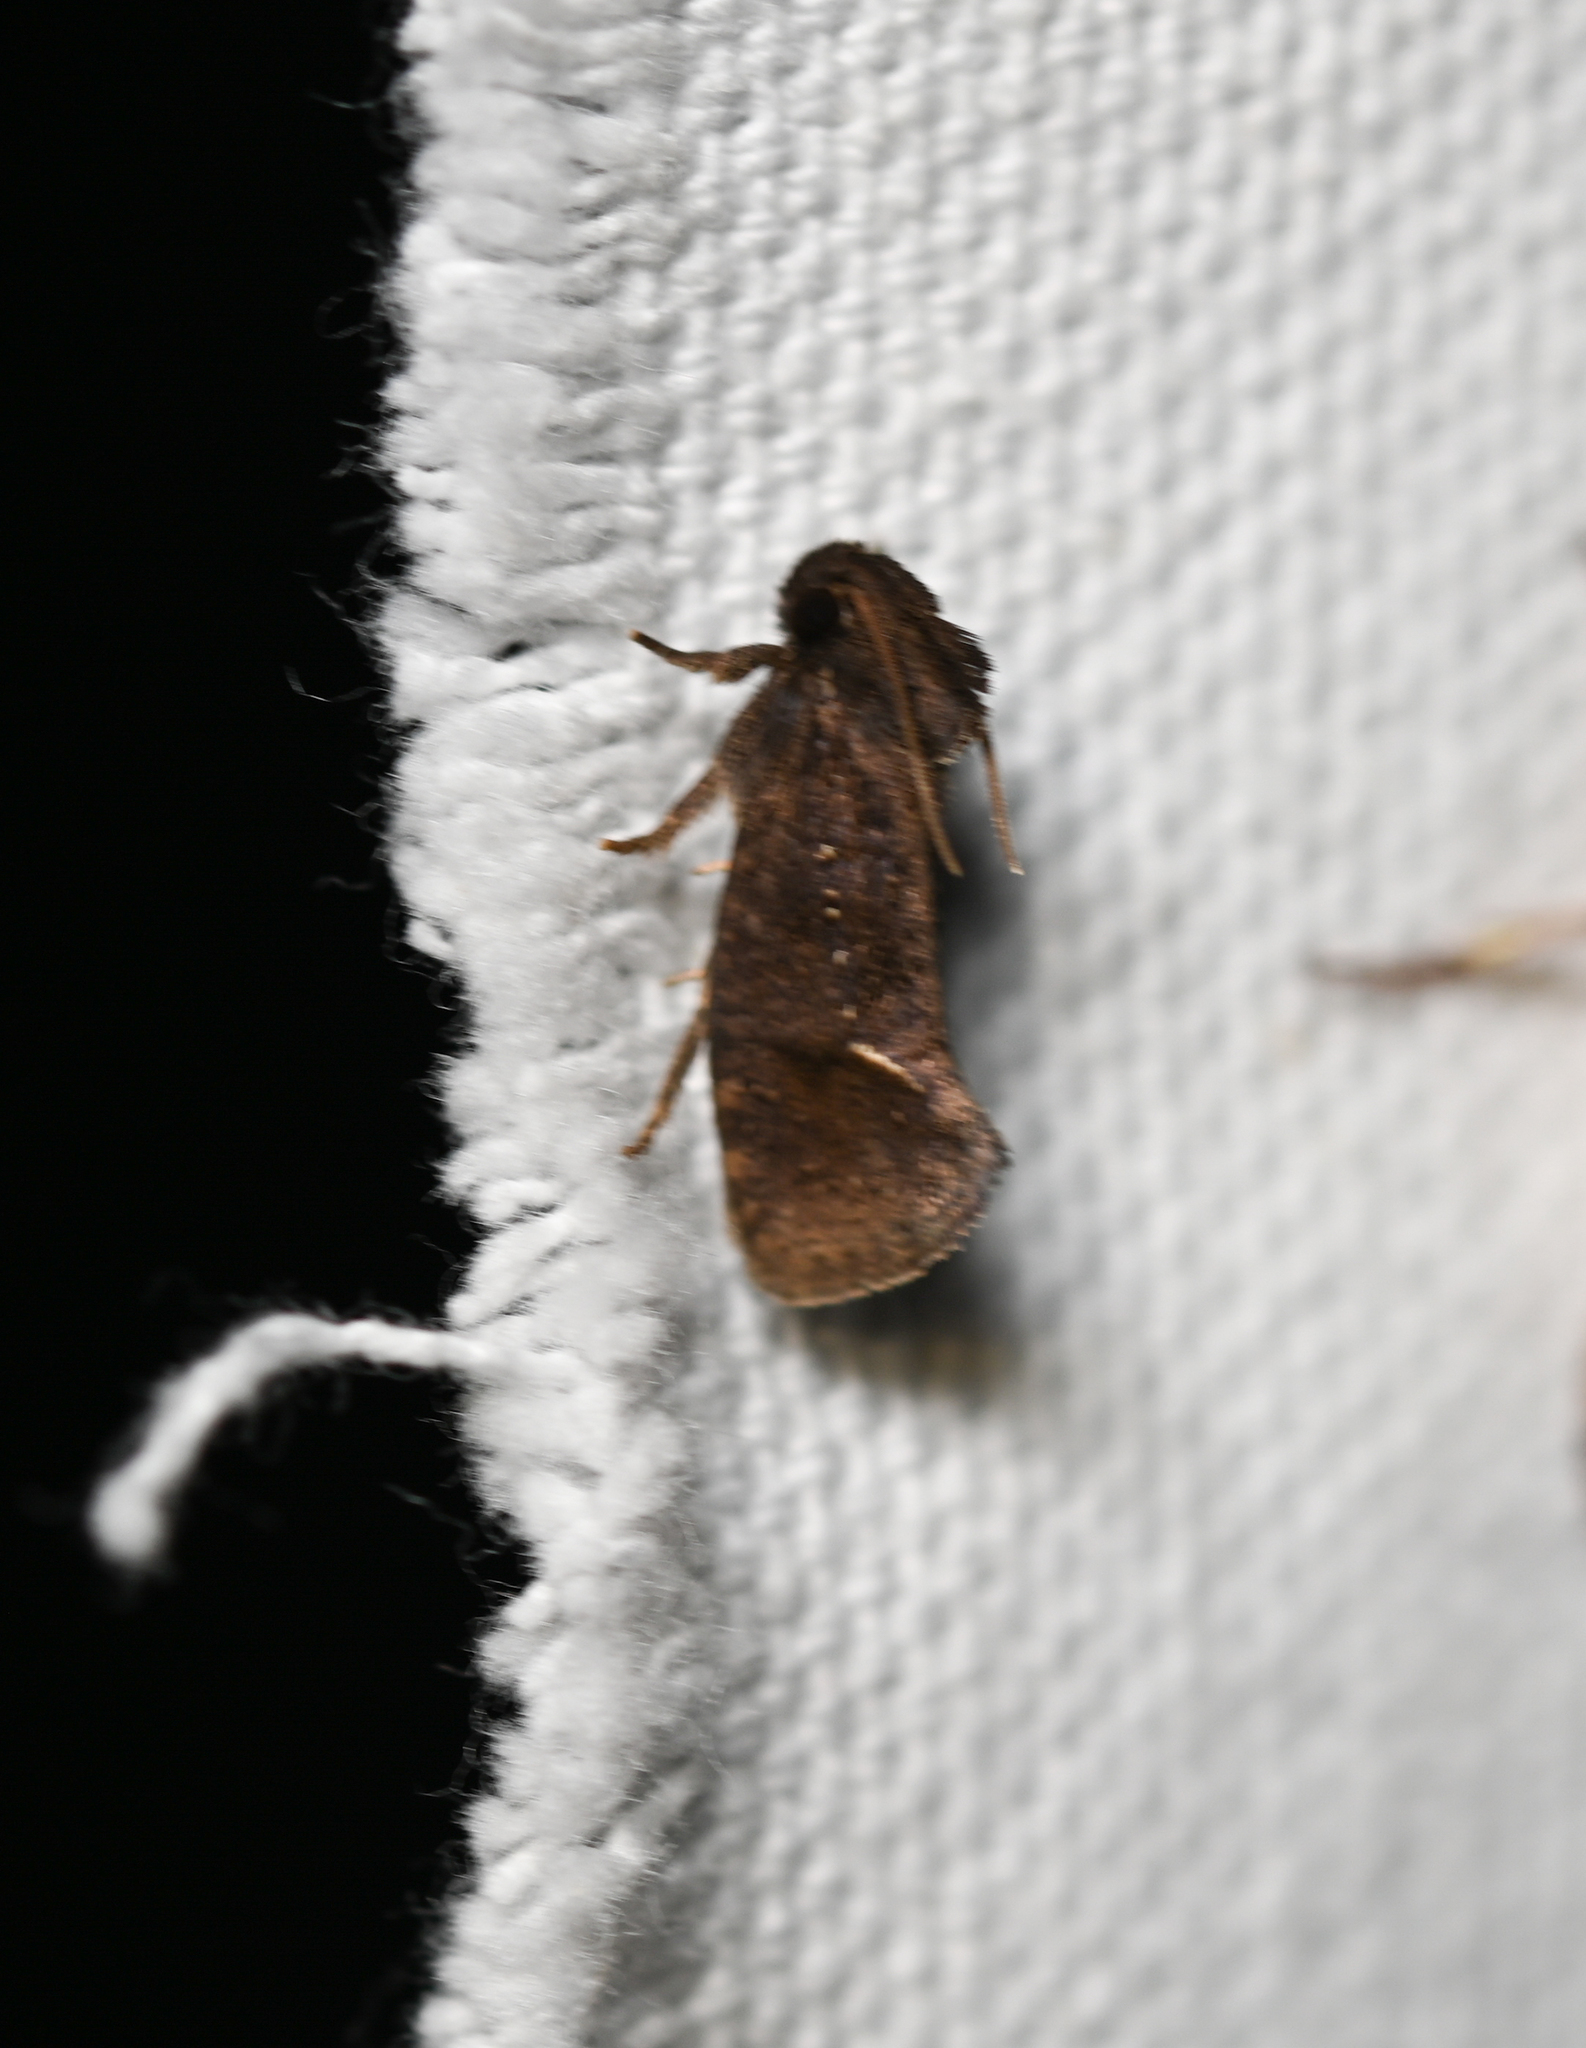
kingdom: Animalia
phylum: Arthropoda
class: Insecta
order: Lepidoptera
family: Tineidae
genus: Acrolophus
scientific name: Acrolophus texanella
